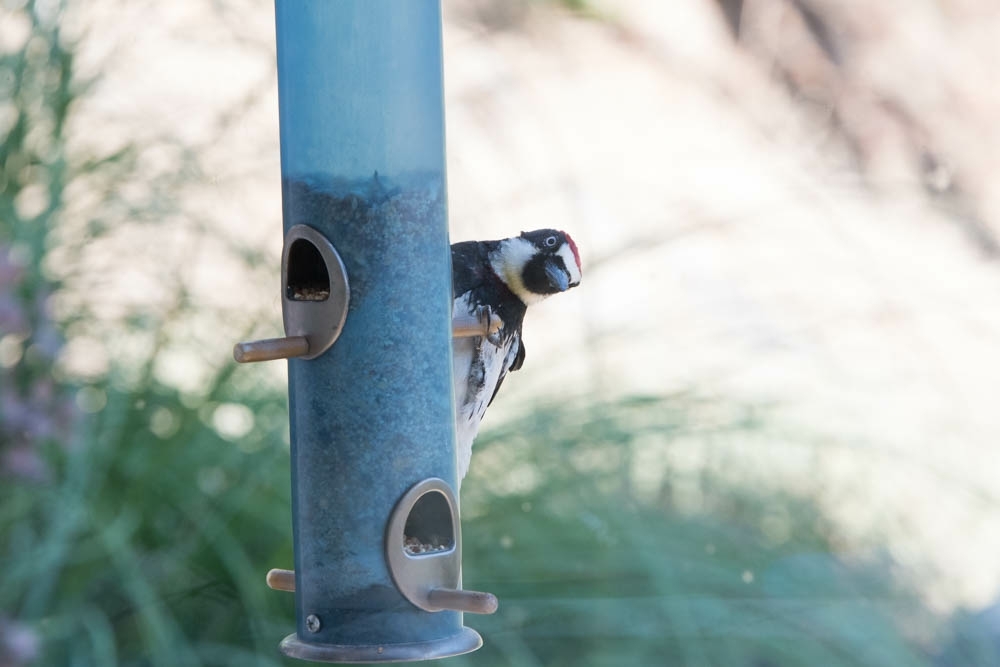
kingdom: Animalia
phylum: Chordata
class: Aves
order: Piciformes
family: Picidae
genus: Melanerpes
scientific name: Melanerpes formicivorus
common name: Acorn woodpecker
